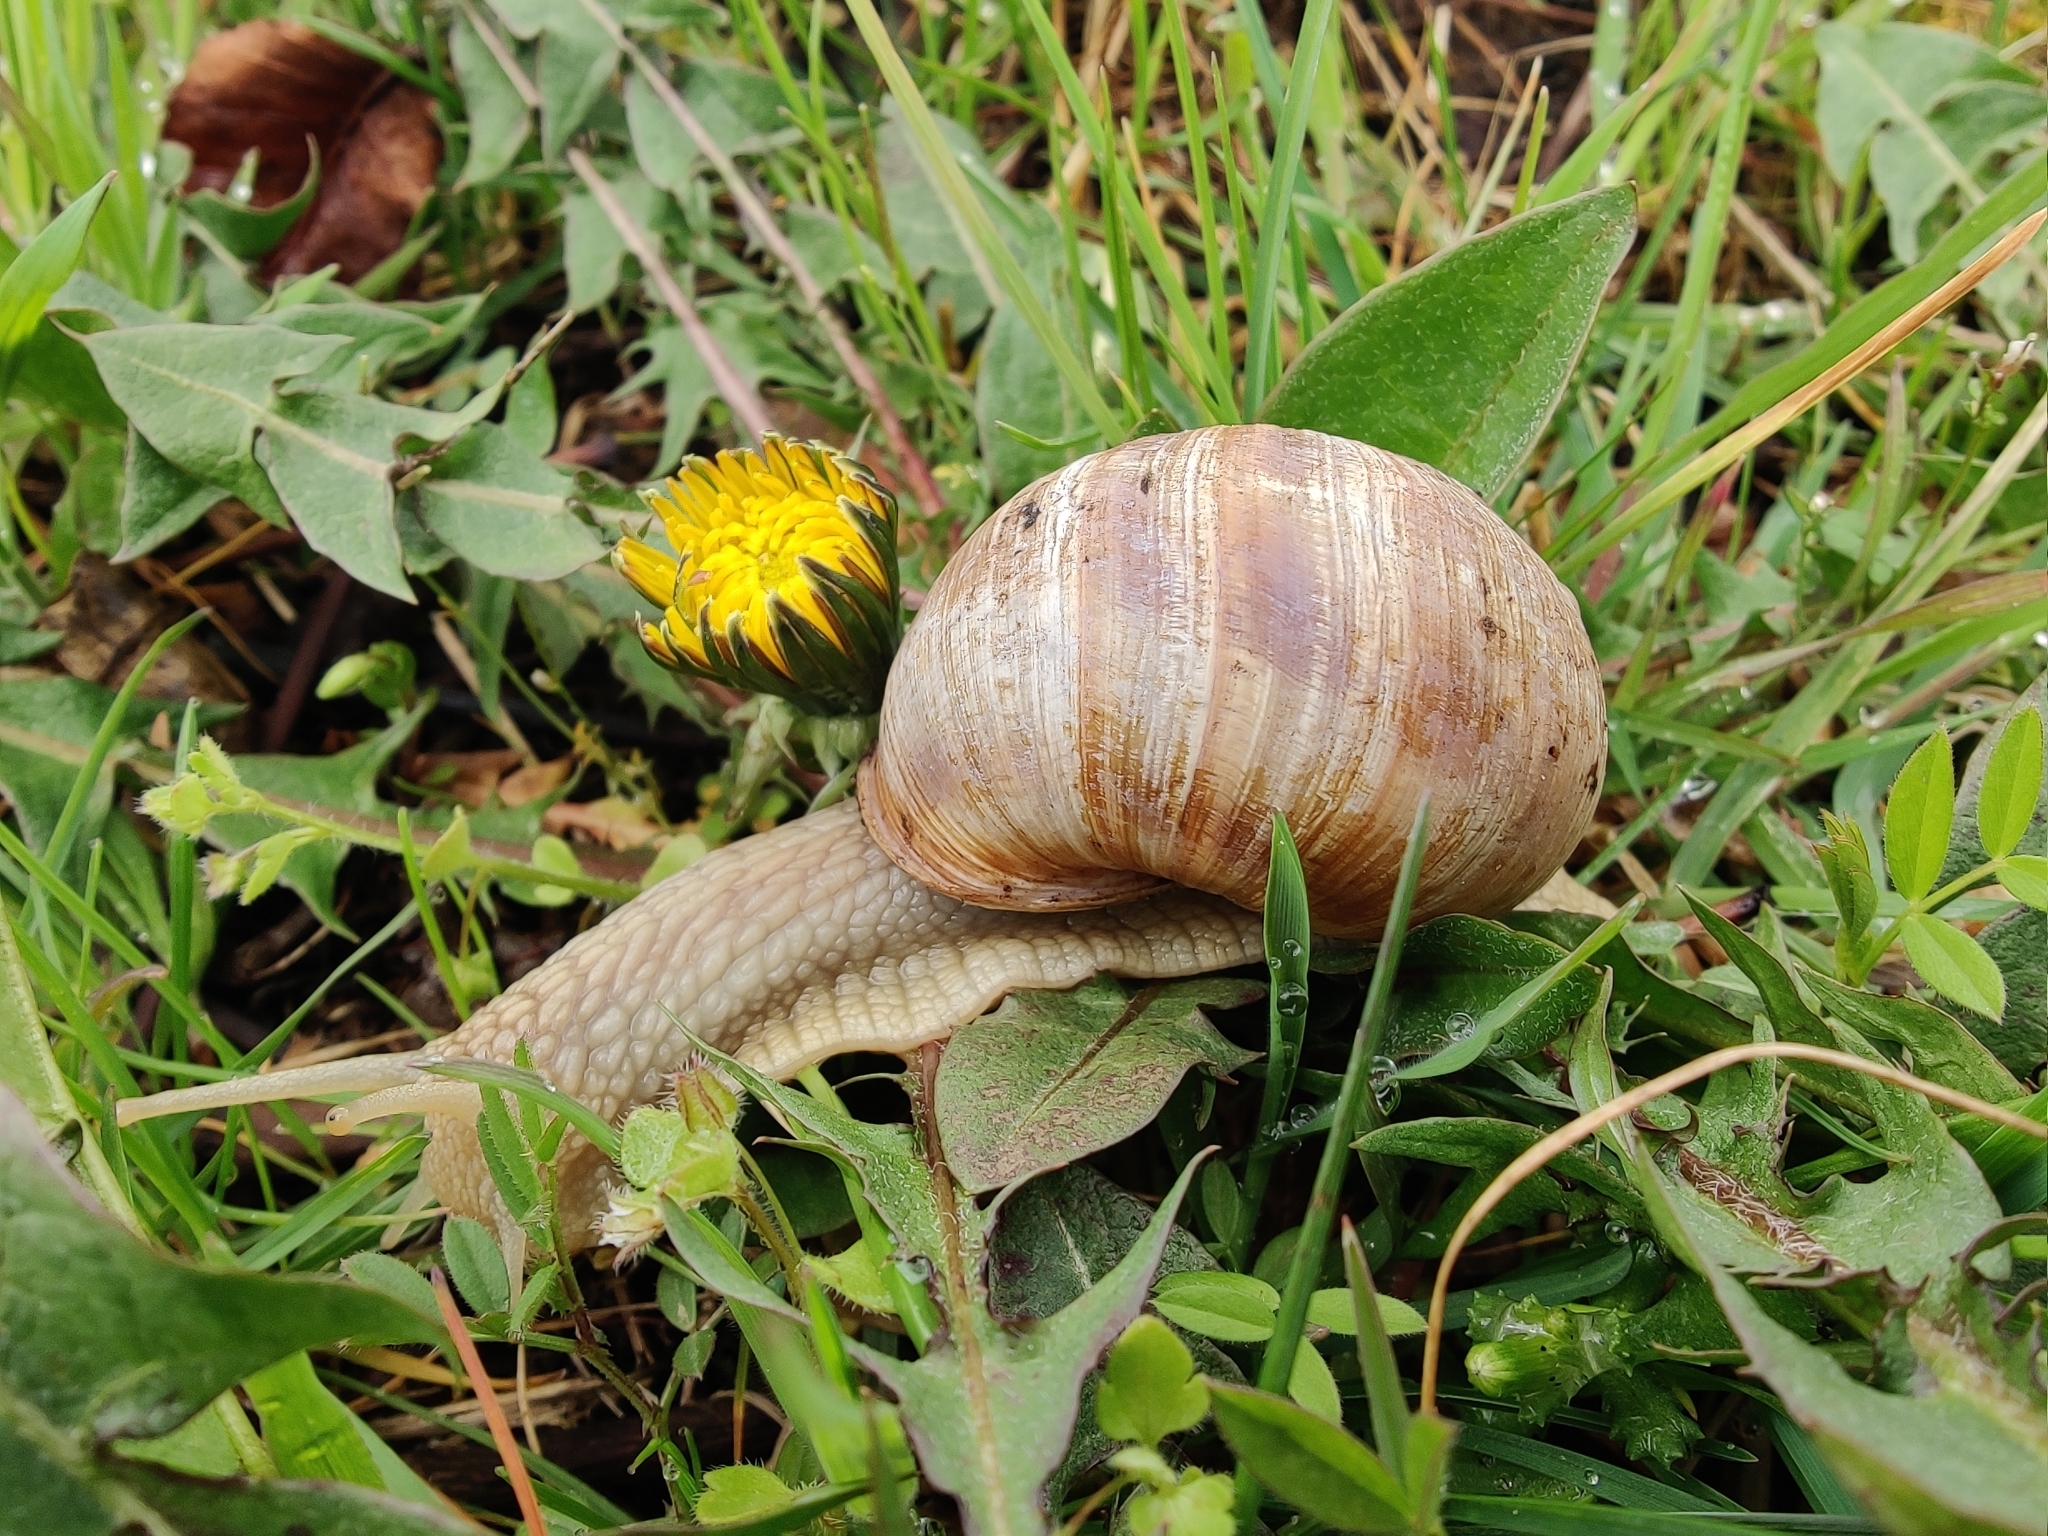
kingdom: Animalia
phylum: Mollusca
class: Gastropoda
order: Stylommatophora
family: Helicidae
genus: Helix
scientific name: Helix pomatia
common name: Roman snail
